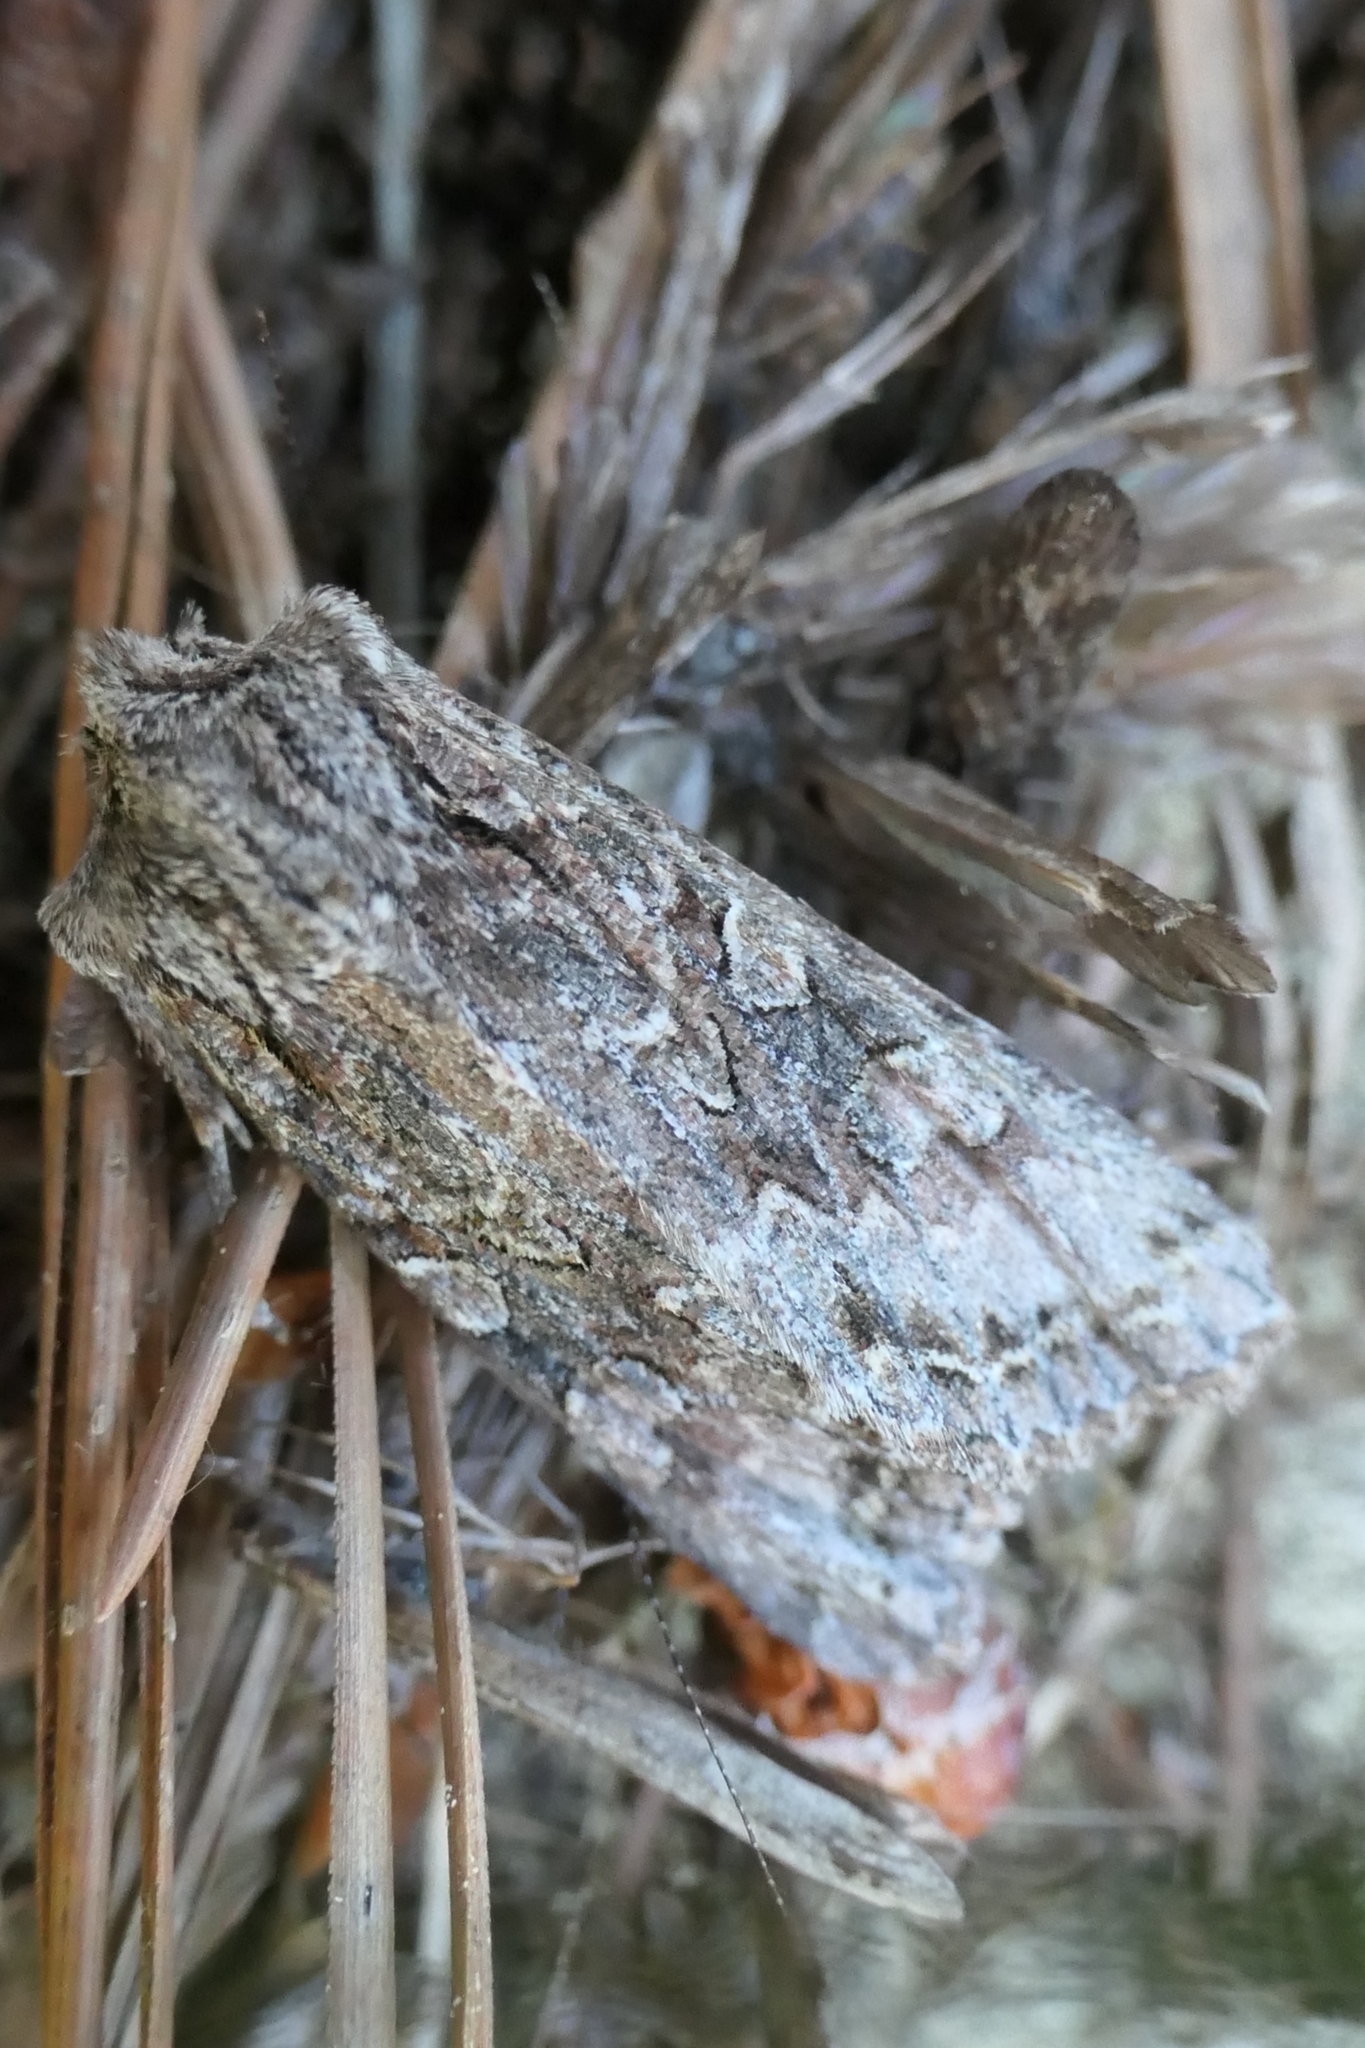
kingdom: Animalia
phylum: Arthropoda
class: Insecta
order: Lepidoptera
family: Noctuidae
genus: Ichneutica
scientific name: Ichneutica mutans
